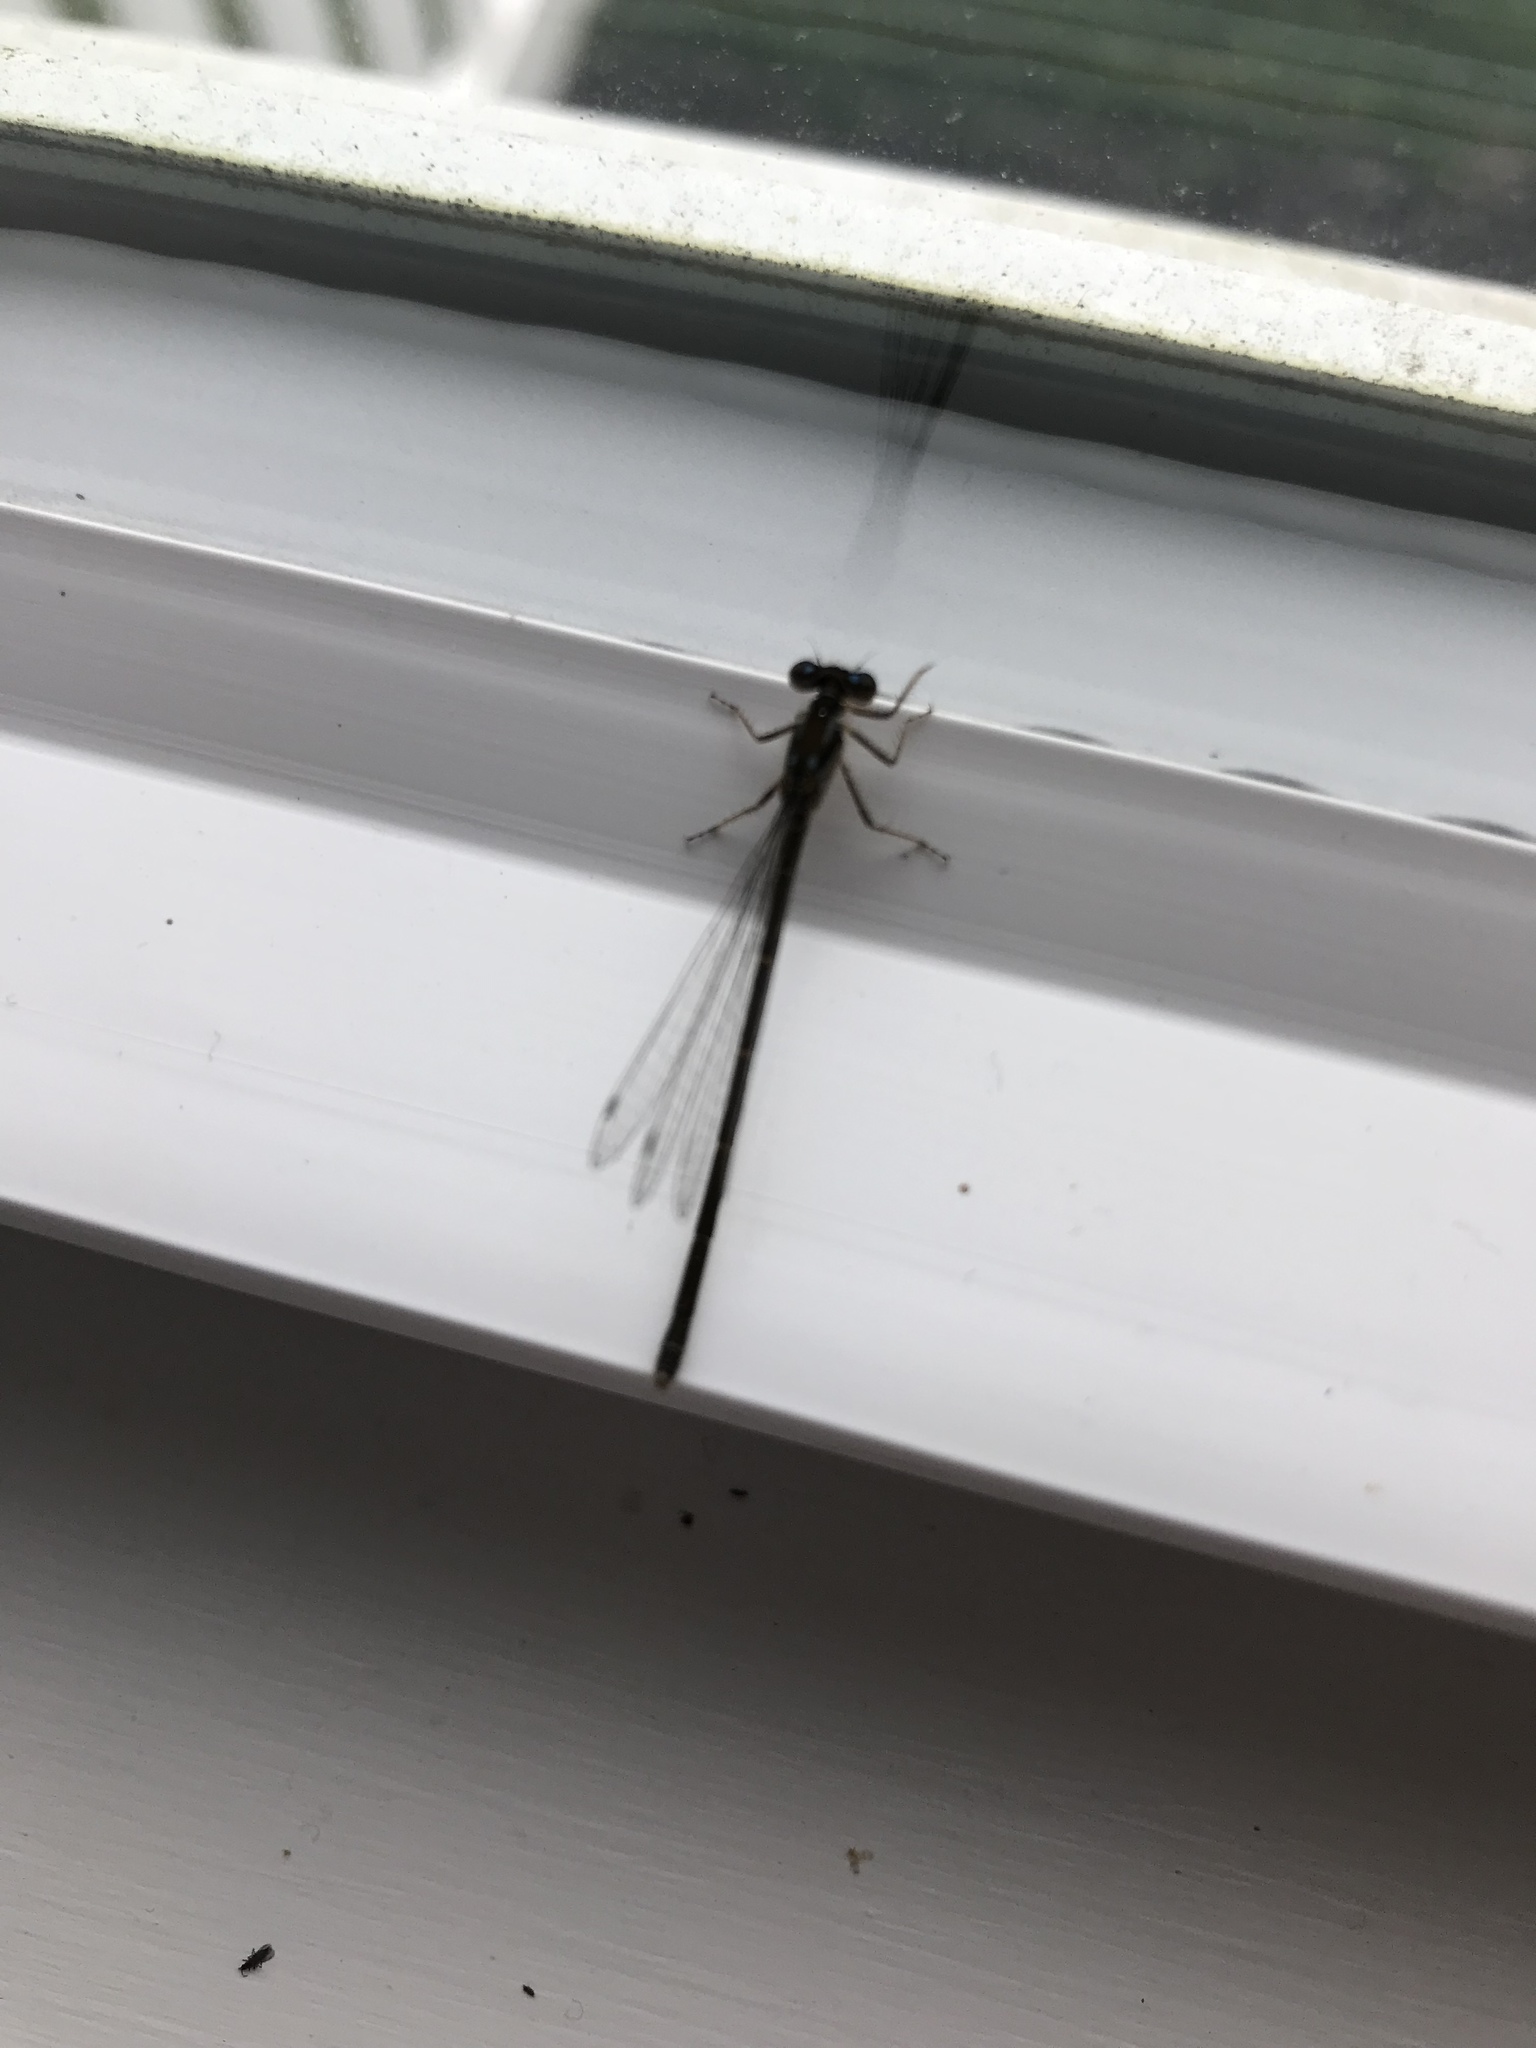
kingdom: Animalia
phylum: Arthropoda
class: Insecta
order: Odonata
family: Coenagrionidae
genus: Ischnura
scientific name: Ischnura posita
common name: Fragile forktail
